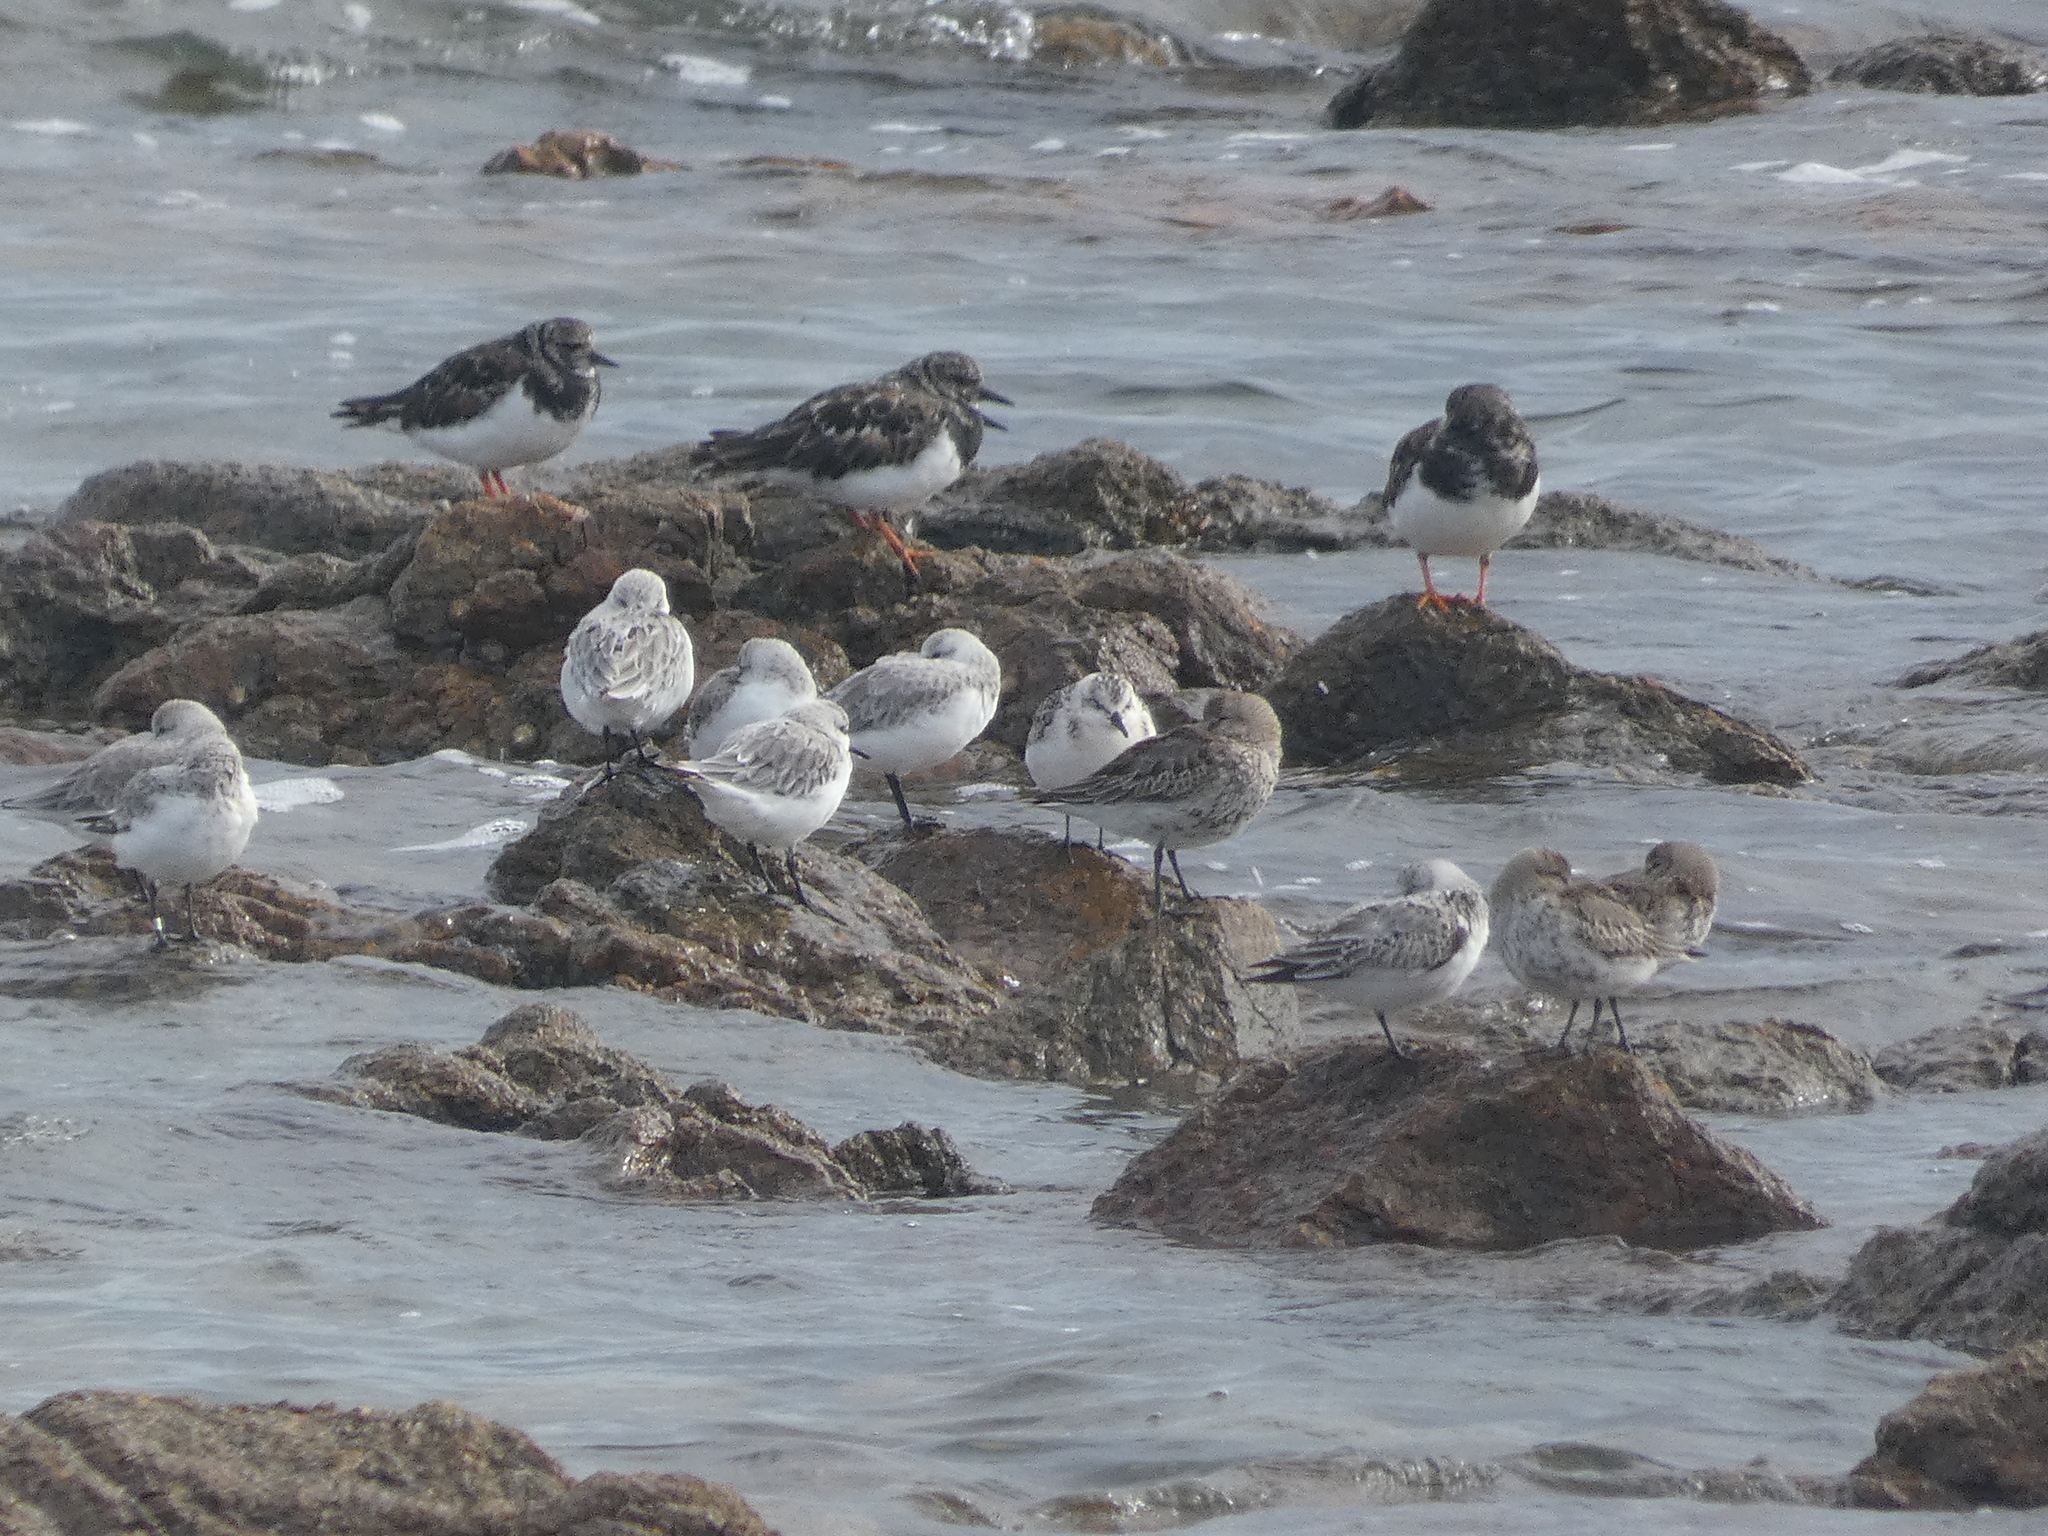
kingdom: Animalia
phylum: Chordata
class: Aves
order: Charadriiformes
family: Scolopacidae
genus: Calidris
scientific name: Calidris alpina
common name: Dunlin
